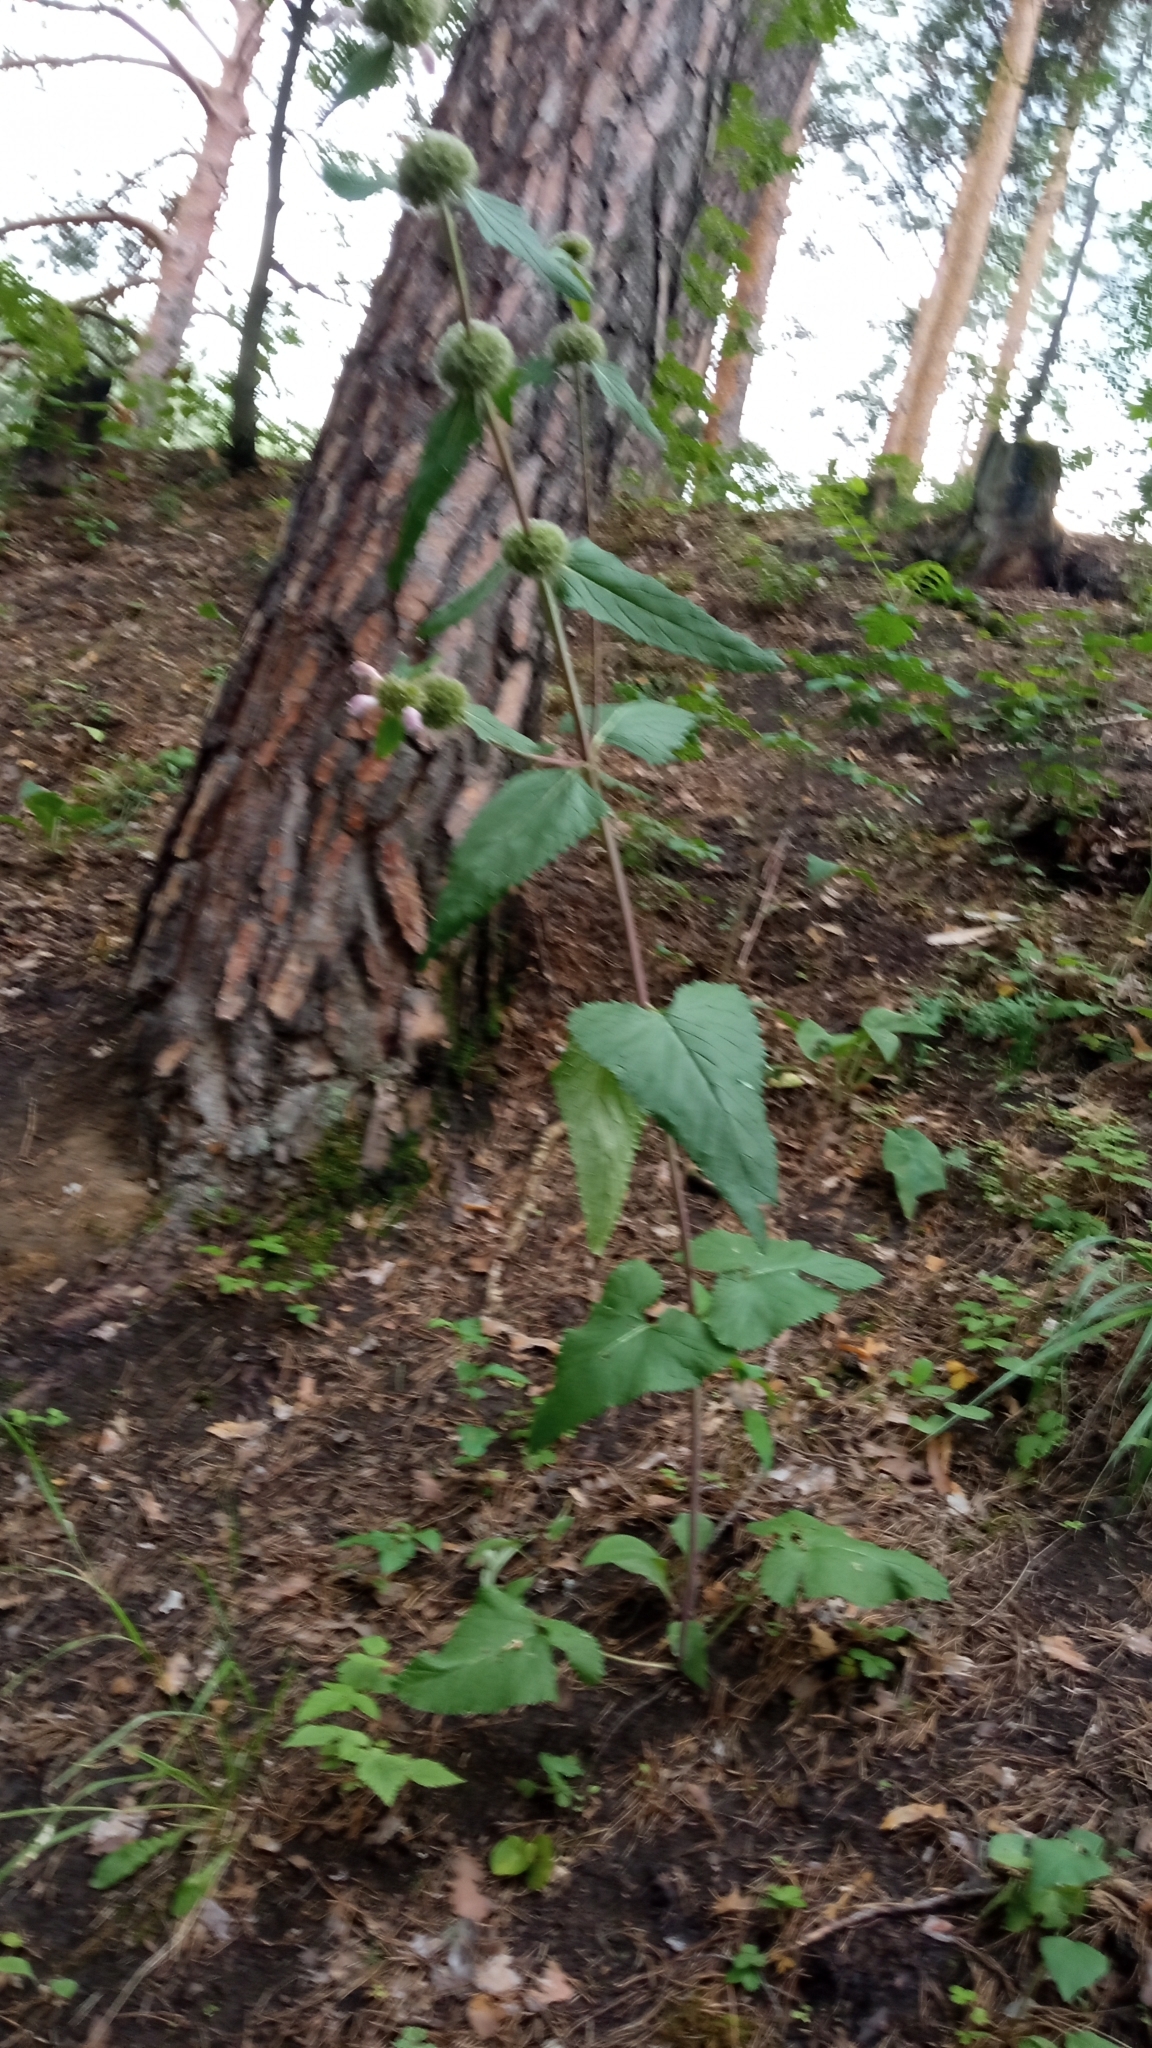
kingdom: Plantae
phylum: Tracheophyta
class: Magnoliopsida
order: Lamiales
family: Lamiaceae
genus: Phlomoides
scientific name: Phlomoides tuberosa
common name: Tuberous jerusalem sage
